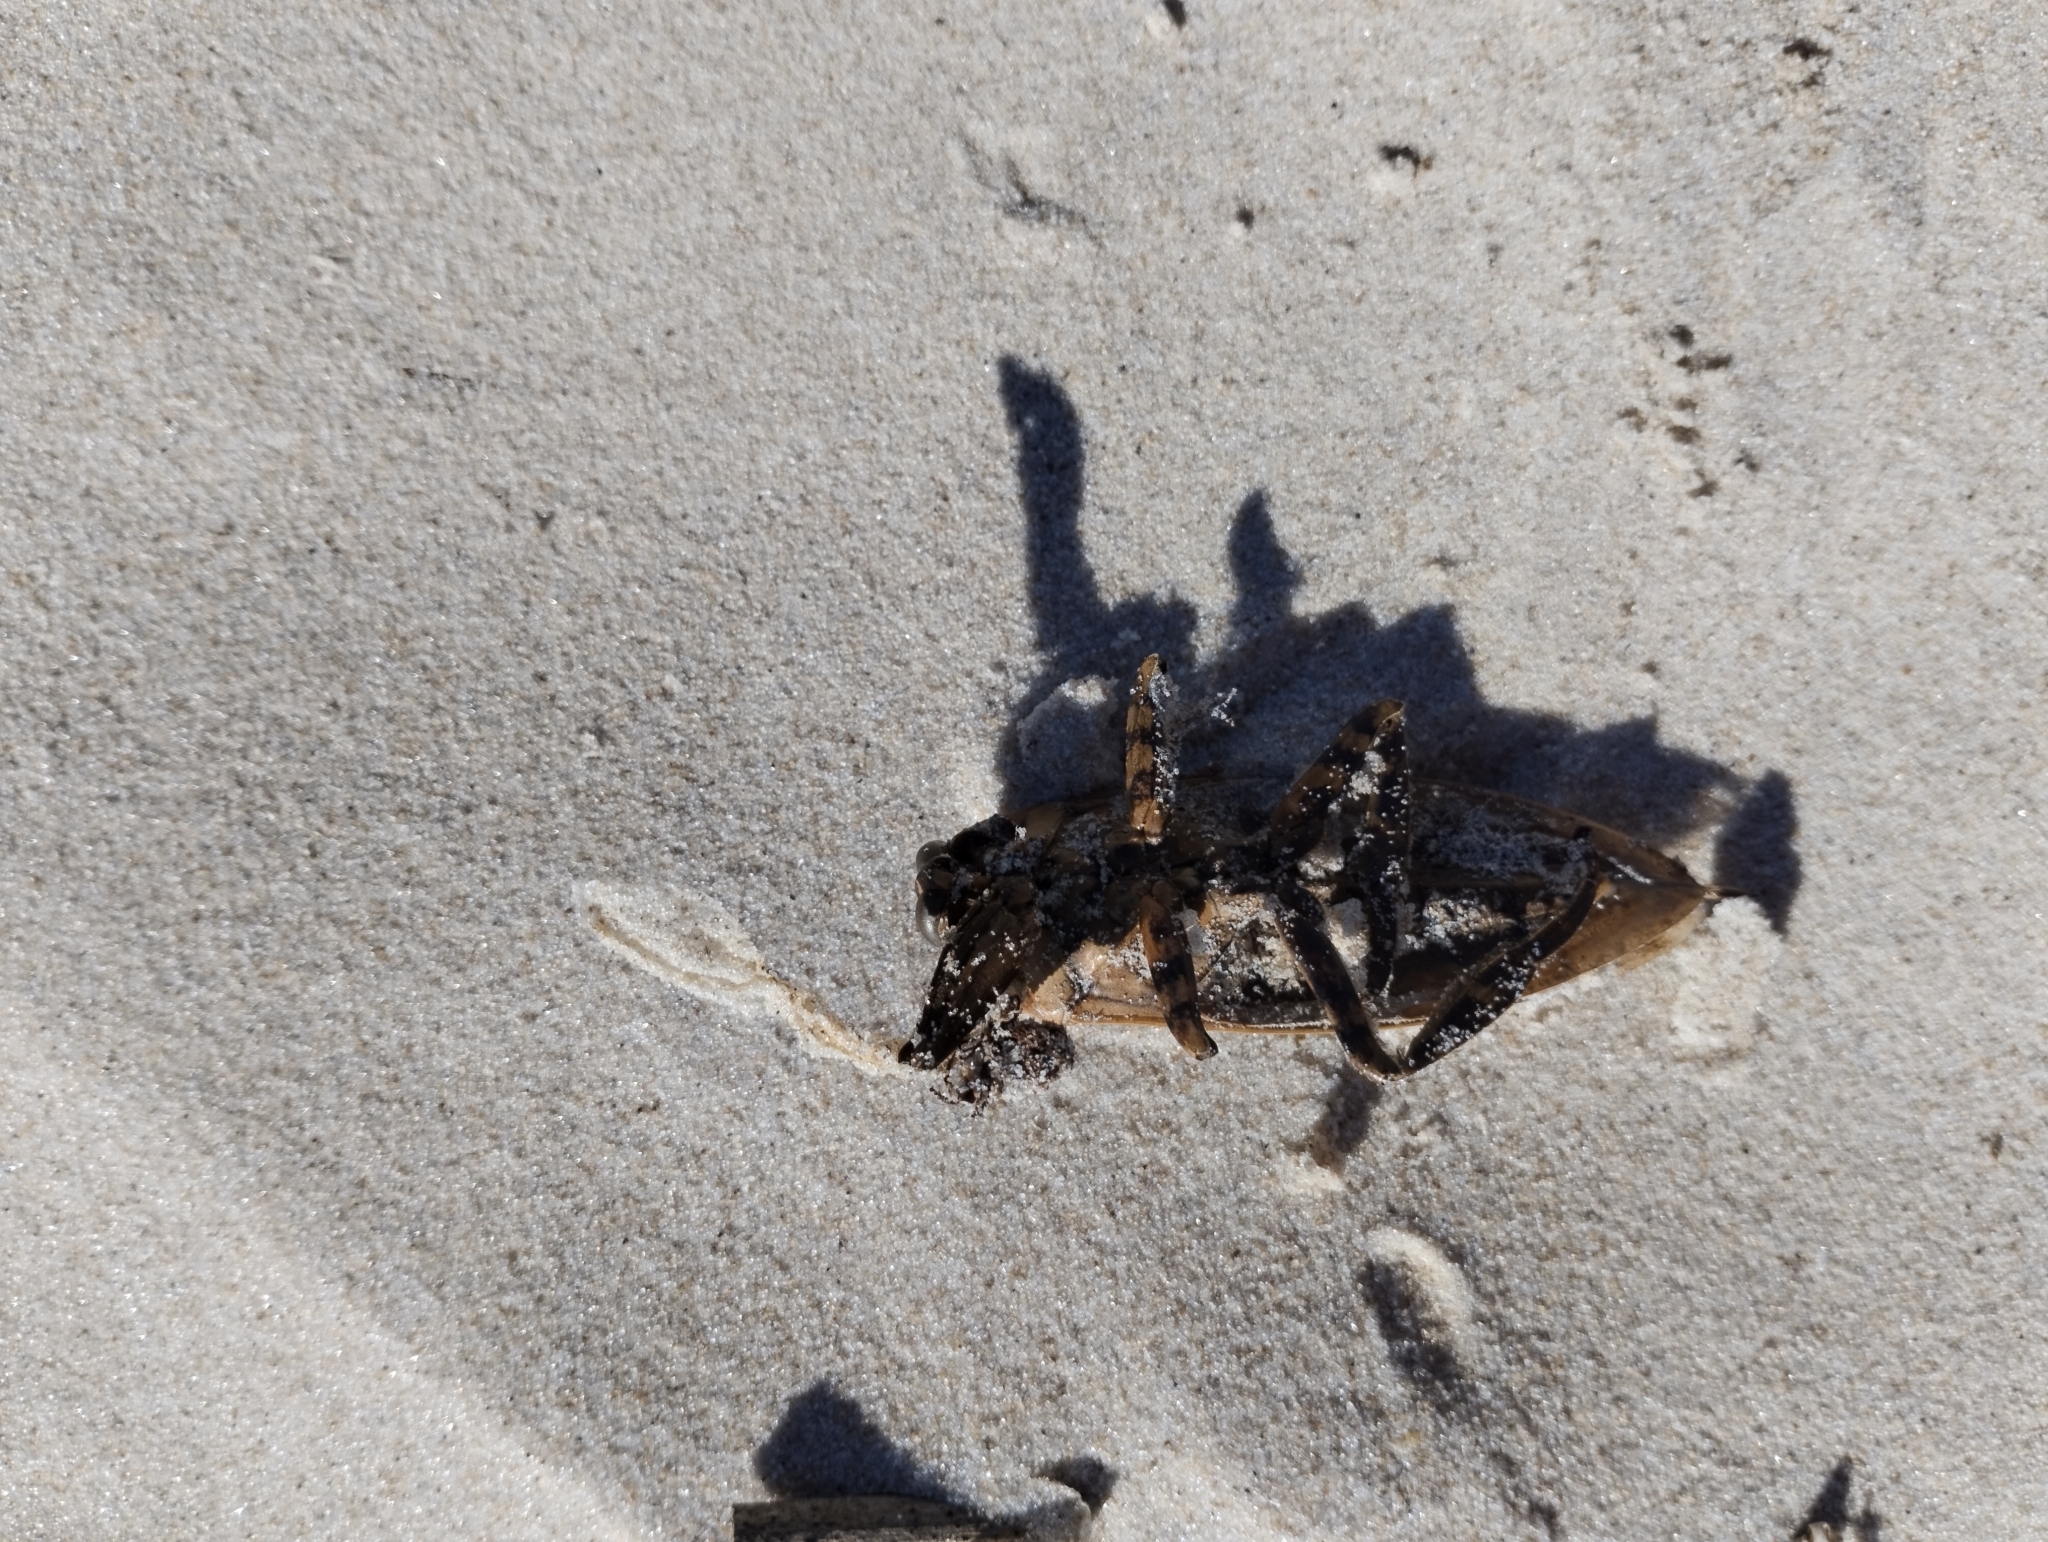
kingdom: Animalia
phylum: Arthropoda
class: Insecta
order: Hemiptera
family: Belostomatidae
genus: Lethocerus
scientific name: Lethocerus annulipes
